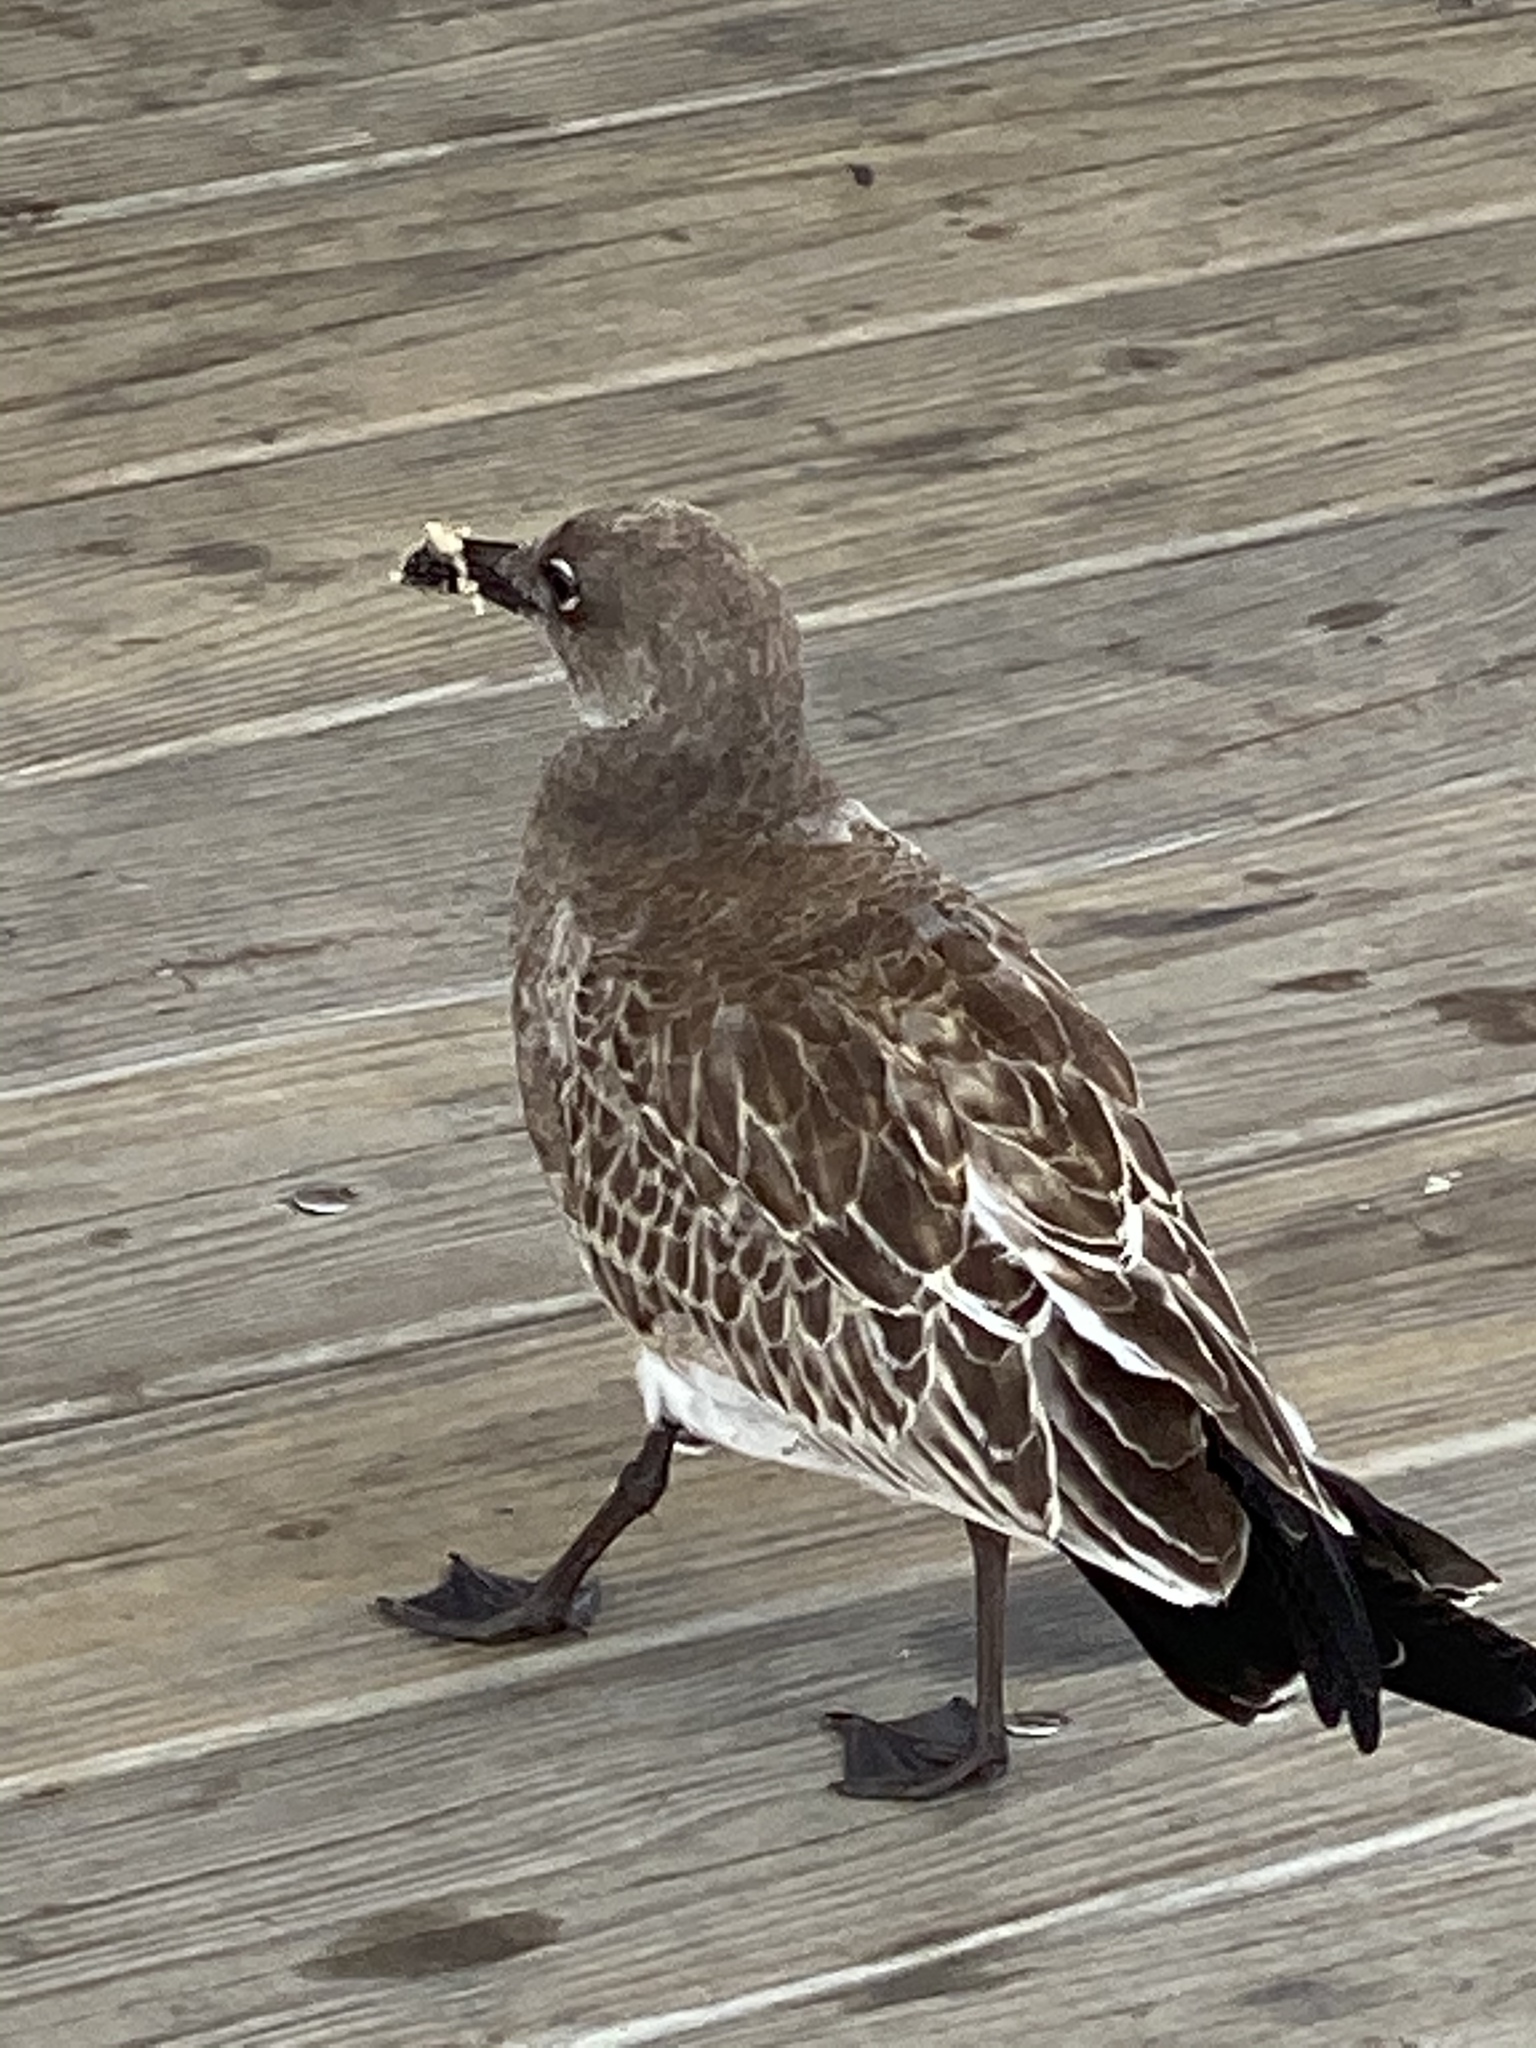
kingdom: Animalia
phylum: Chordata
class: Aves
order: Charadriiformes
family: Laridae
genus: Leucophaeus
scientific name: Leucophaeus atricilla
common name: Laughing gull
